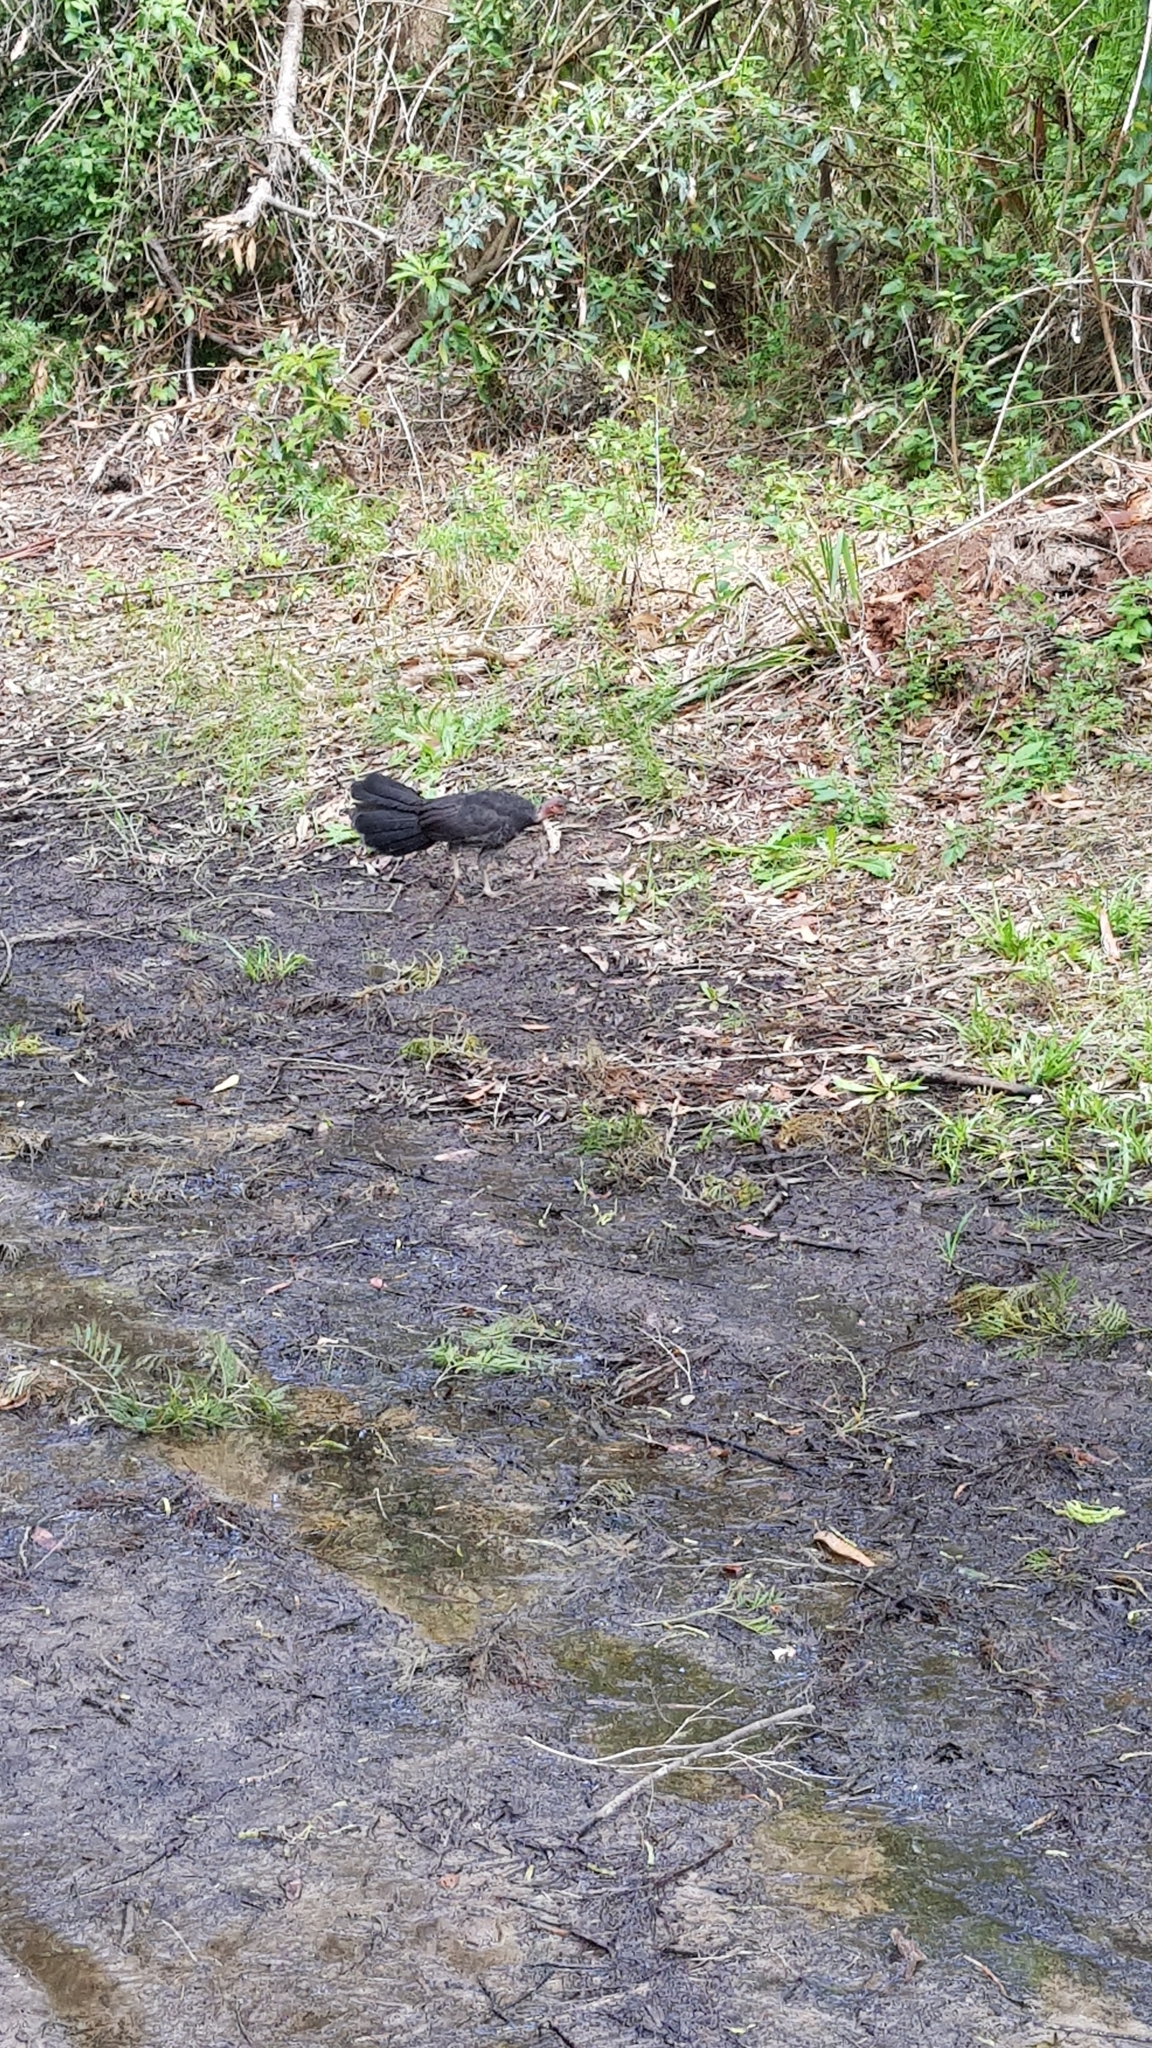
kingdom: Animalia
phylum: Chordata
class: Aves
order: Galliformes
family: Megapodiidae
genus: Alectura
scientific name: Alectura lathami
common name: Australian brushturkey
